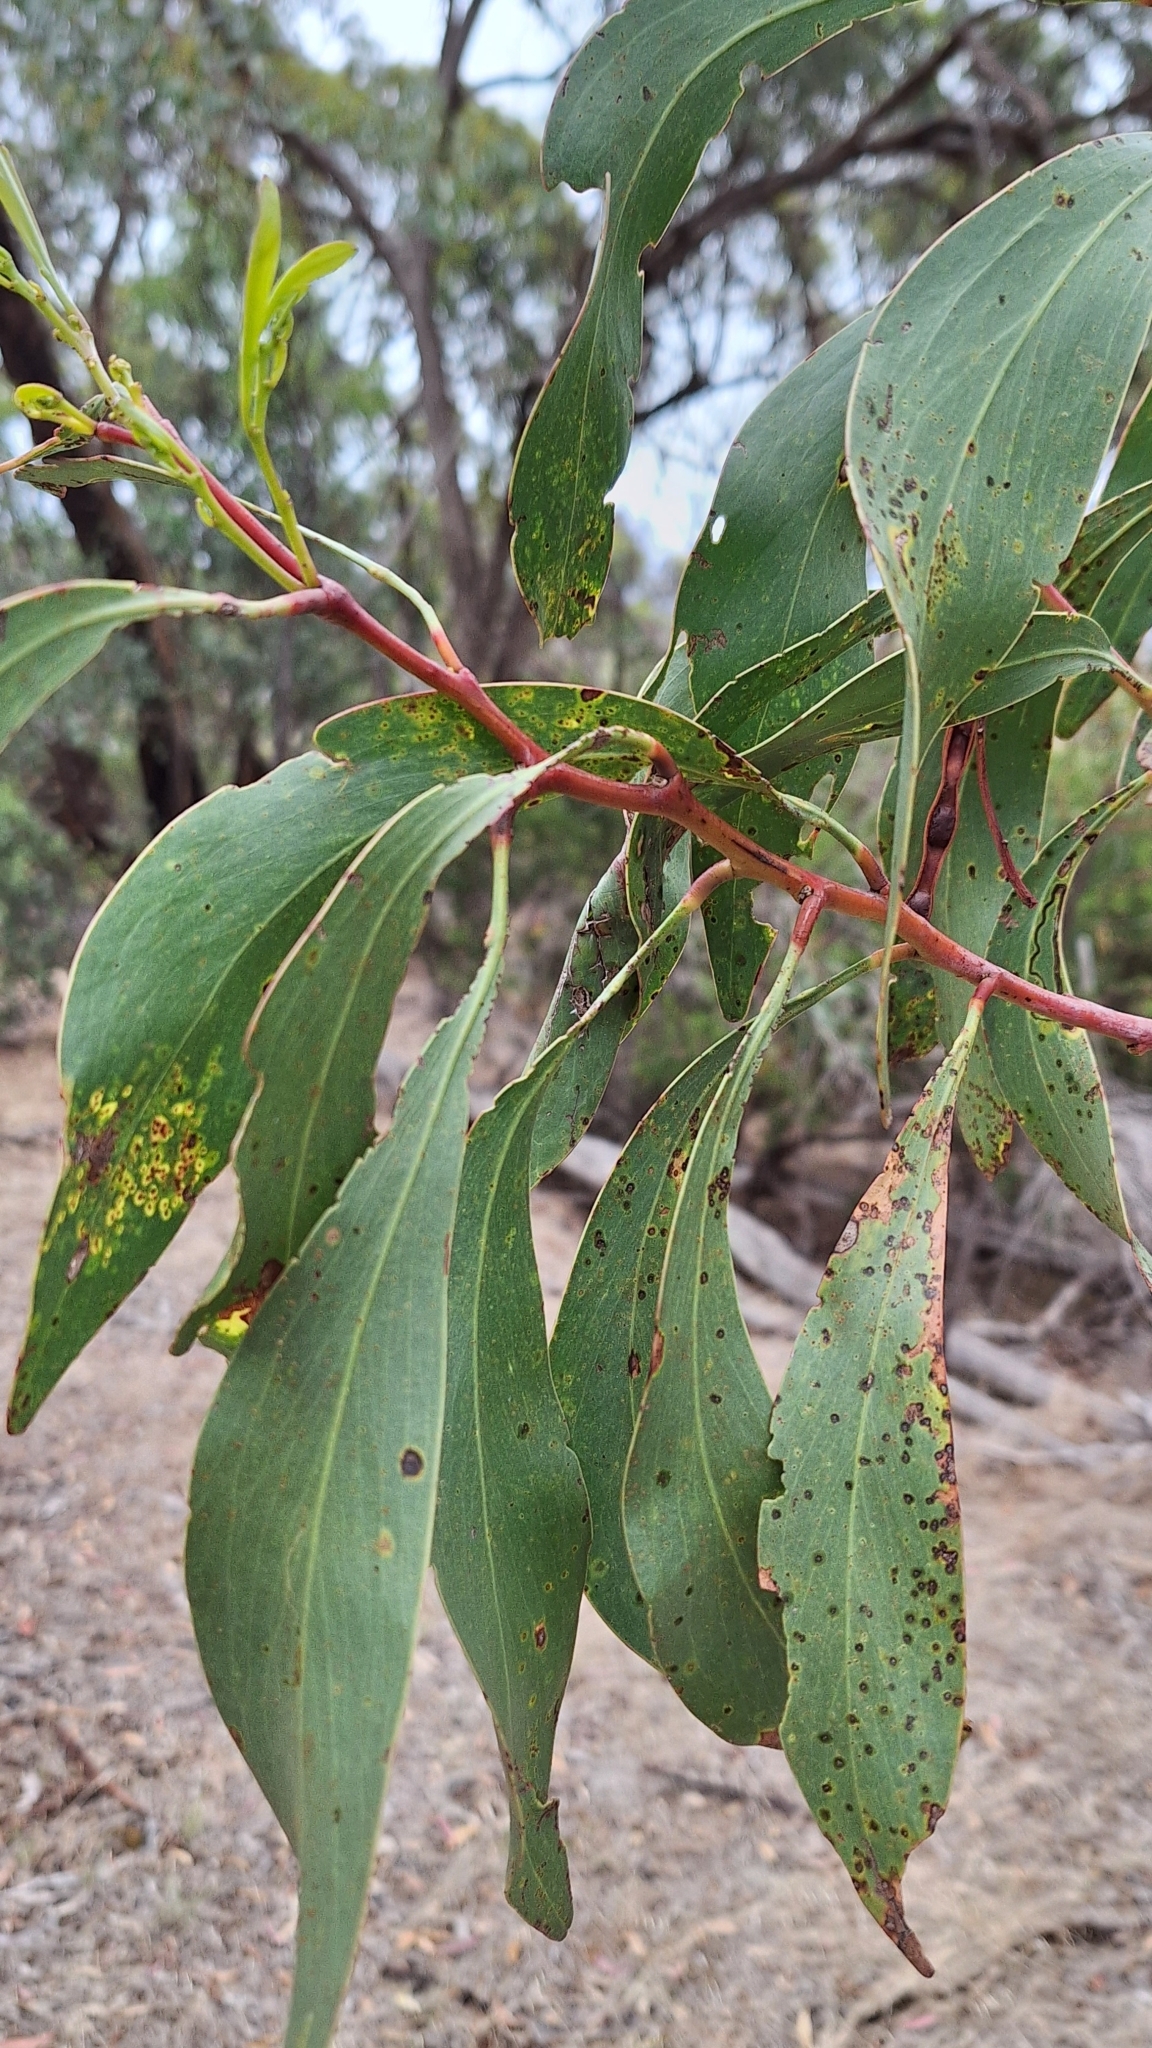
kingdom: Plantae
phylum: Tracheophyta
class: Magnoliopsida
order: Fabales
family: Fabaceae
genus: Acacia
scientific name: Acacia pycnantha
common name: Golden wattle
